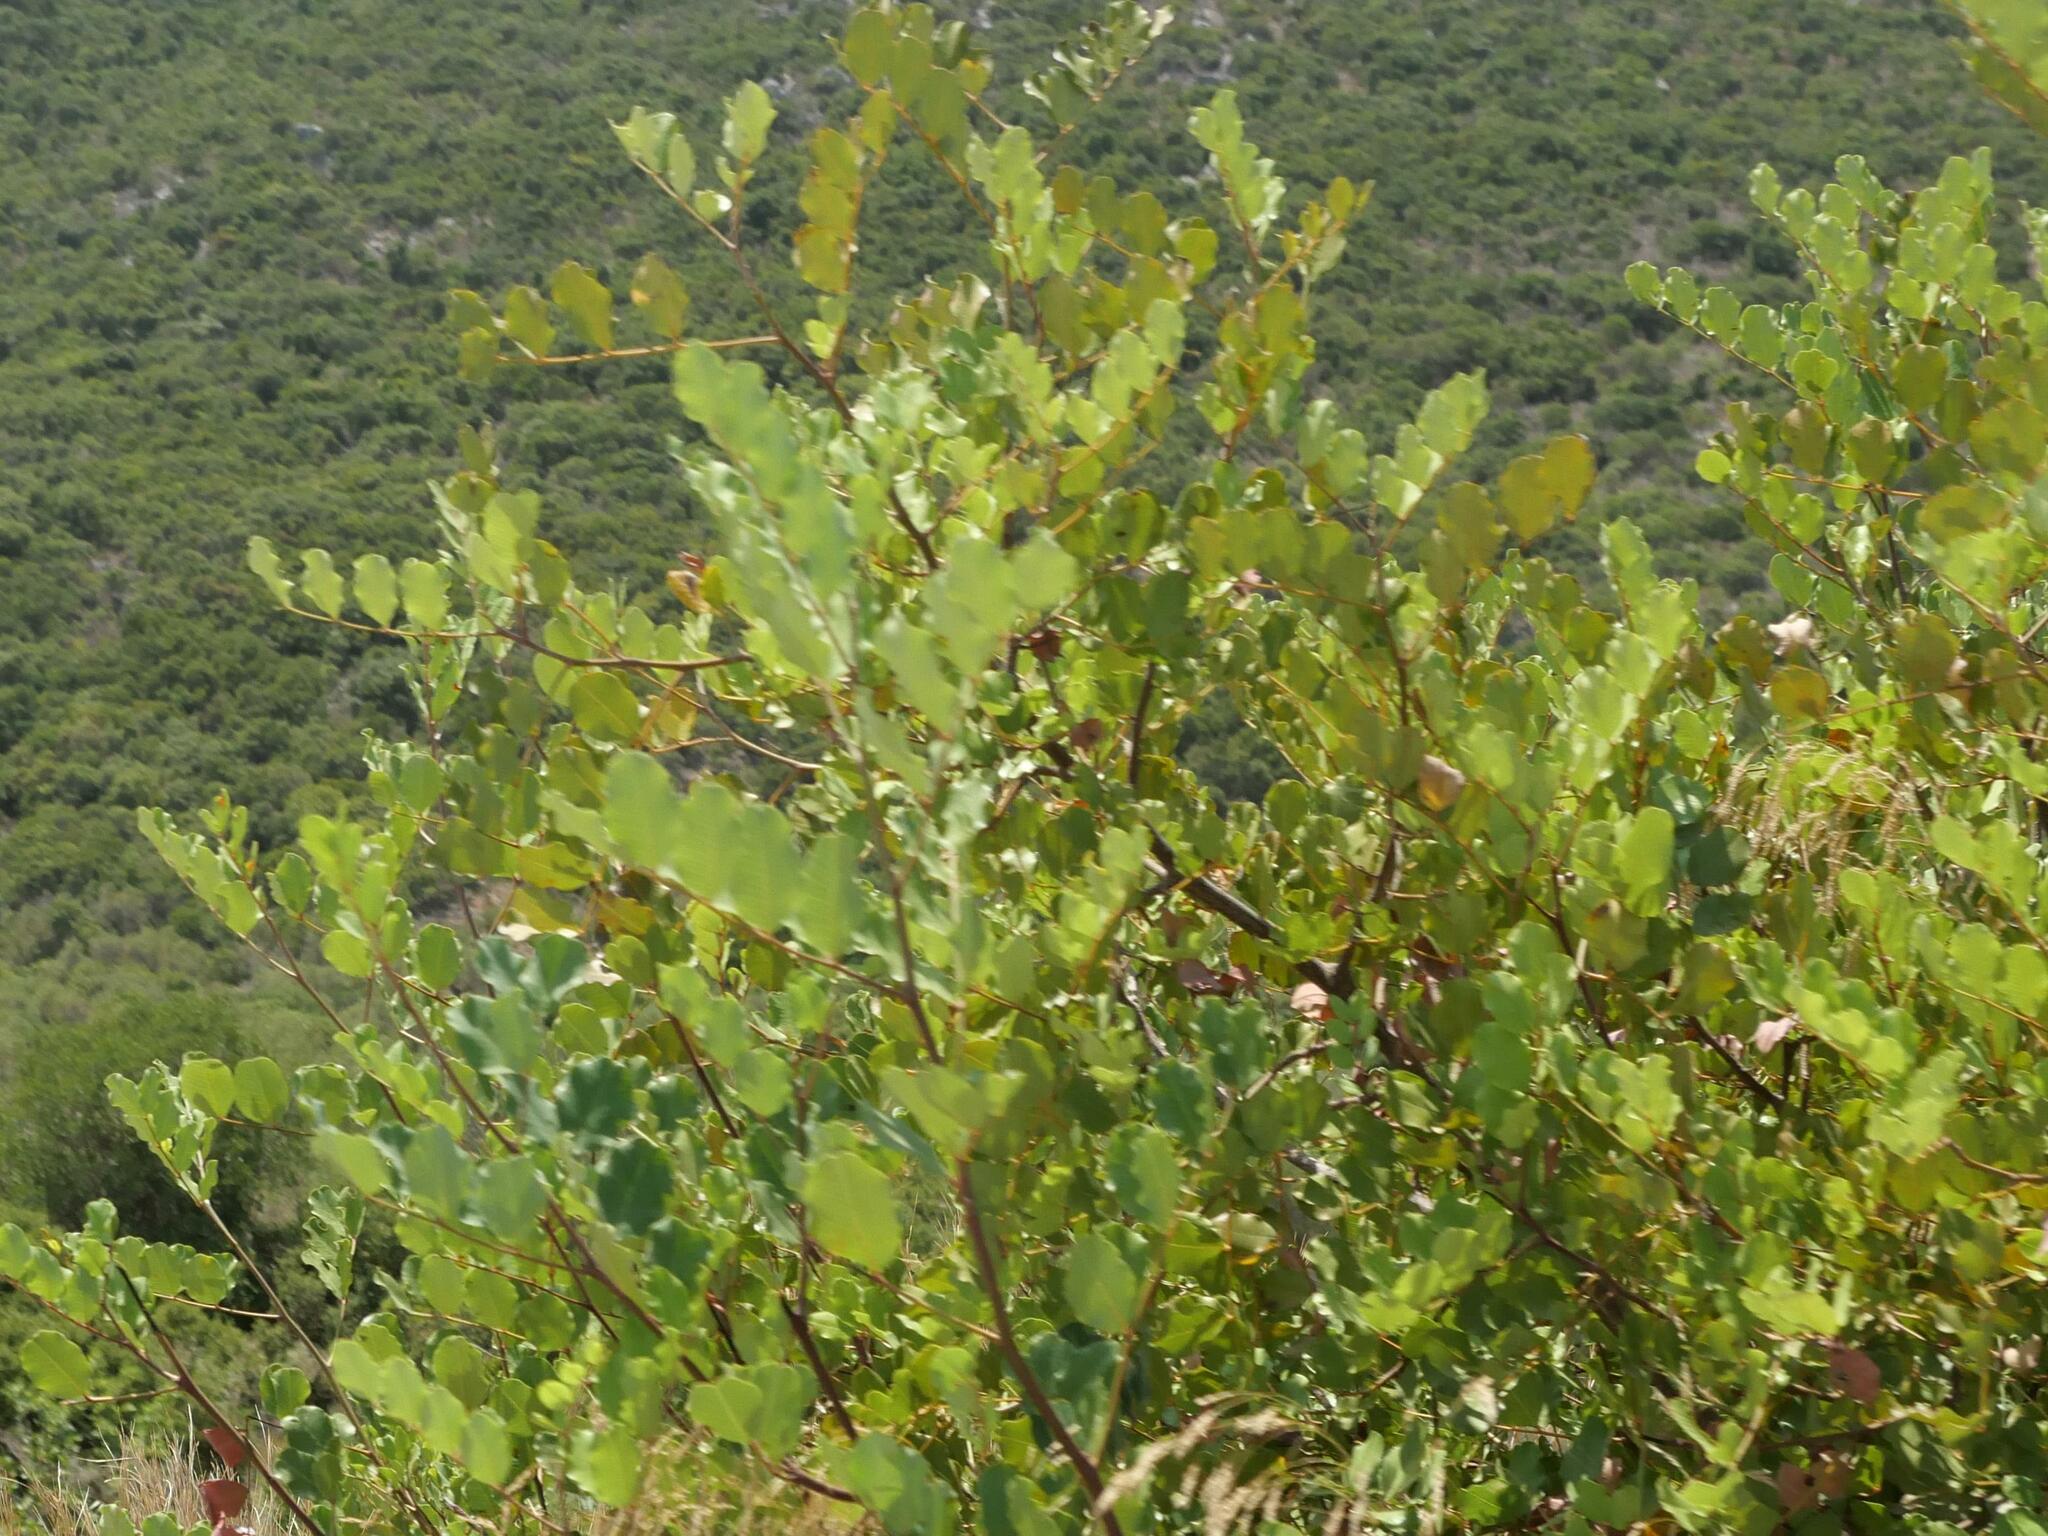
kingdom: Plantae
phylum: Tracheophyta
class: Magnoliopsida
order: Fabales
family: Fabaceae
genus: Ceratonia
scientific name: Ceratonia siliqua
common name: Carob
